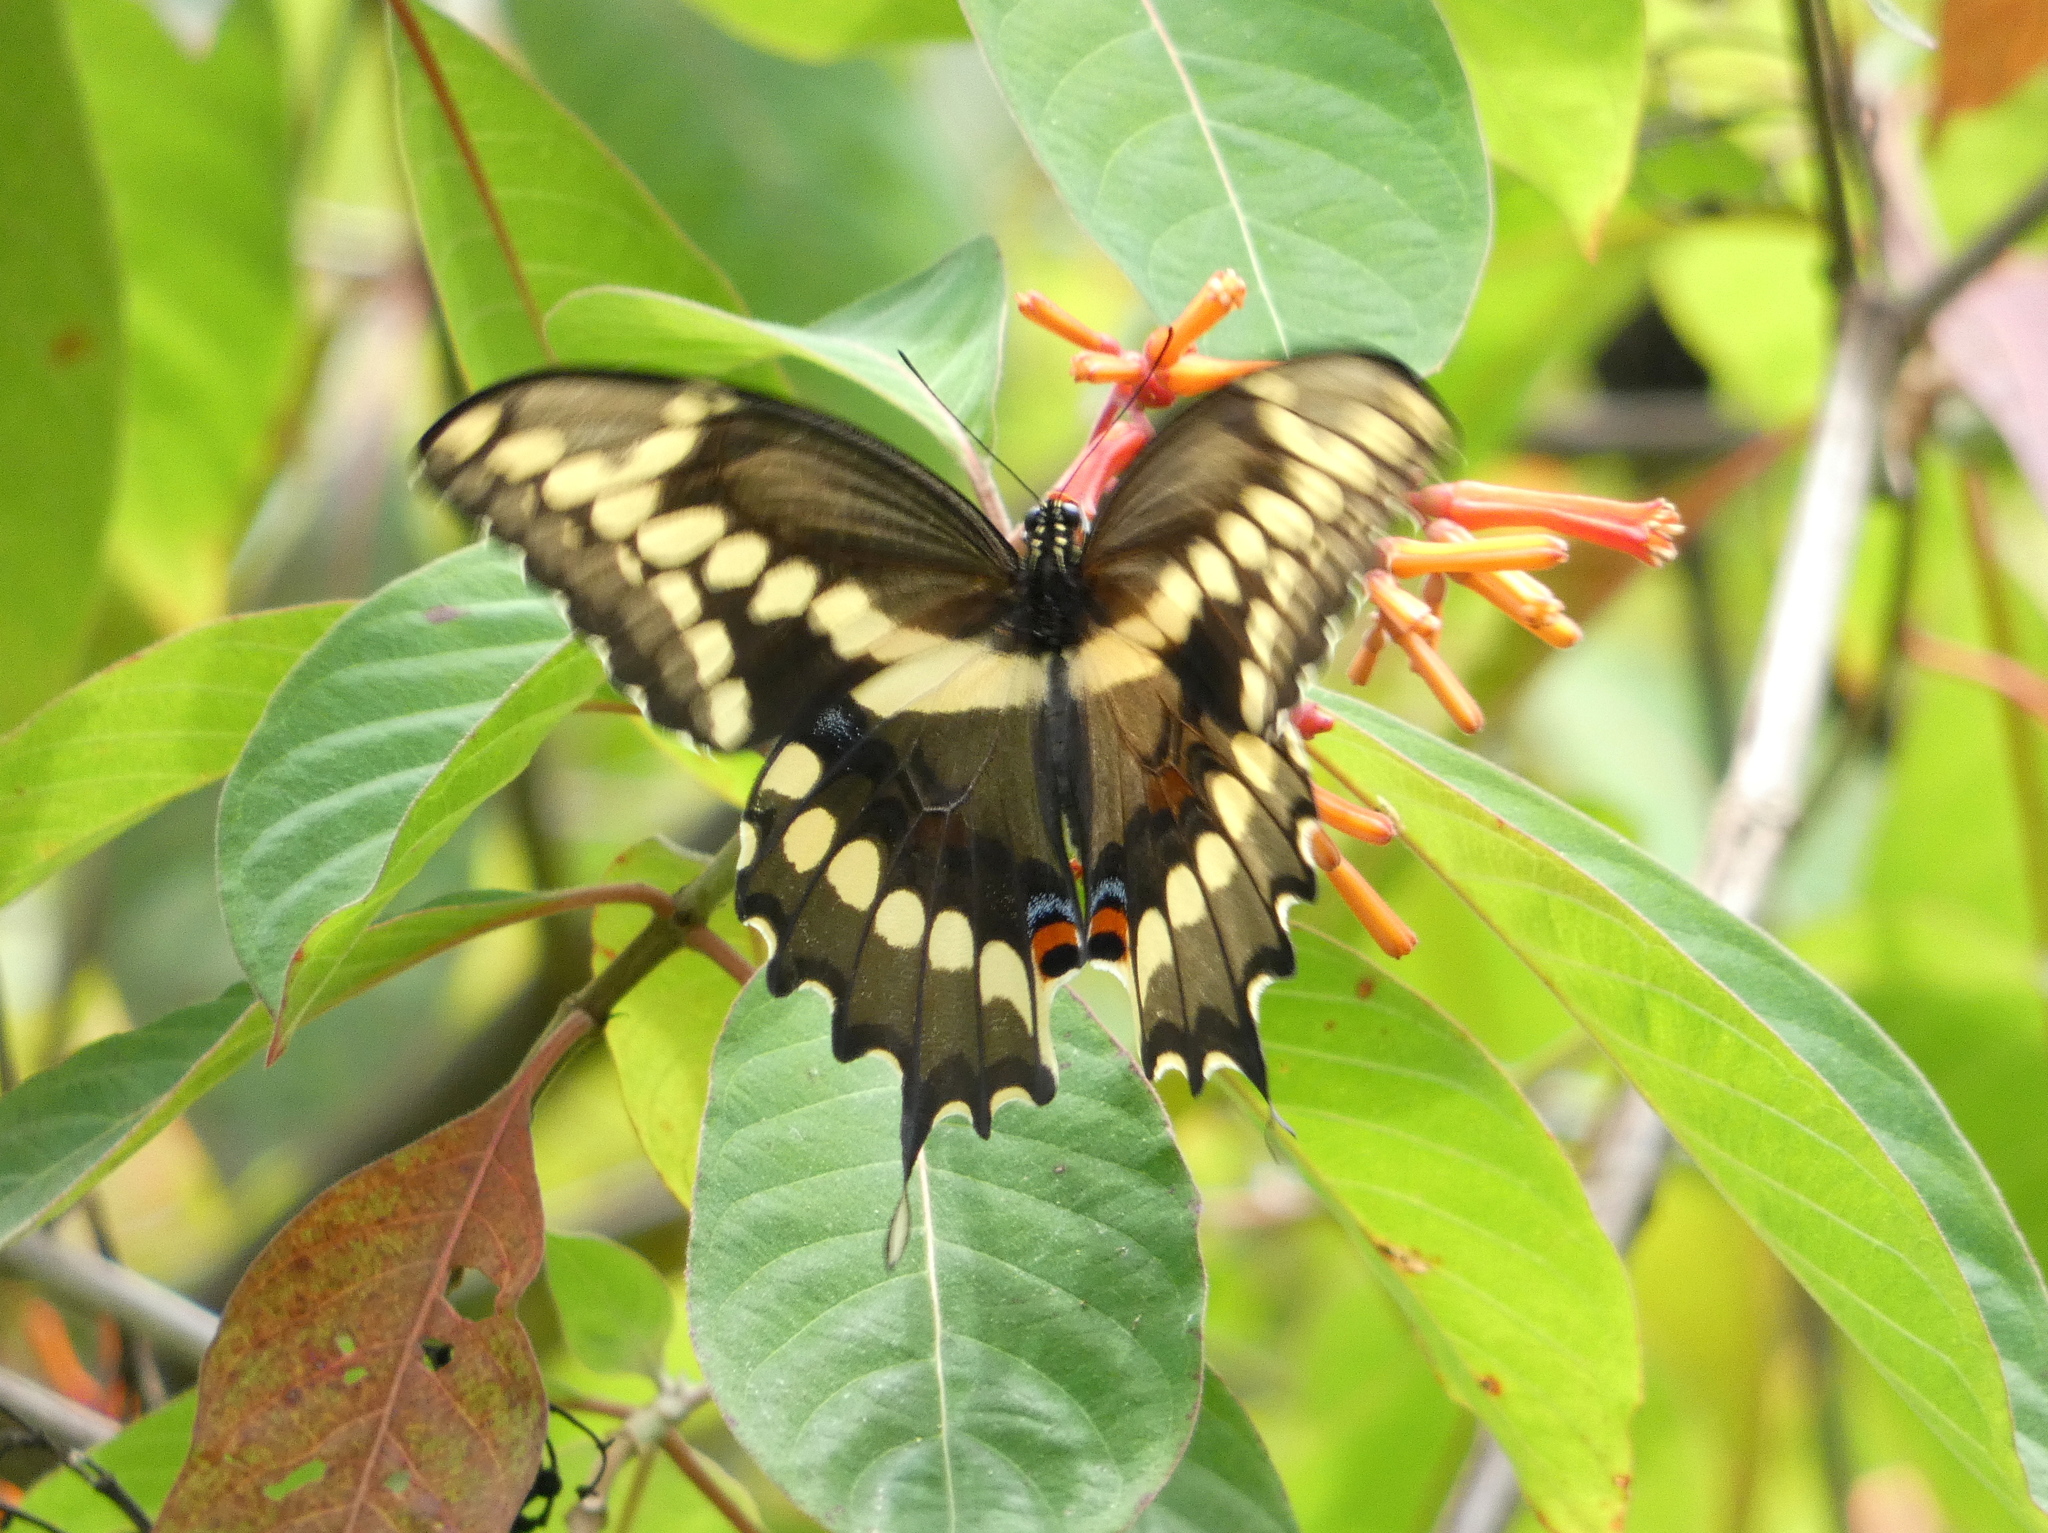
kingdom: Animalia
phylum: Arthropoda
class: Insecta
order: Lepidoptera
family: Papilionidae
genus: Papilio
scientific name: Papilio cresphontes
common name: Giant swallowtail
